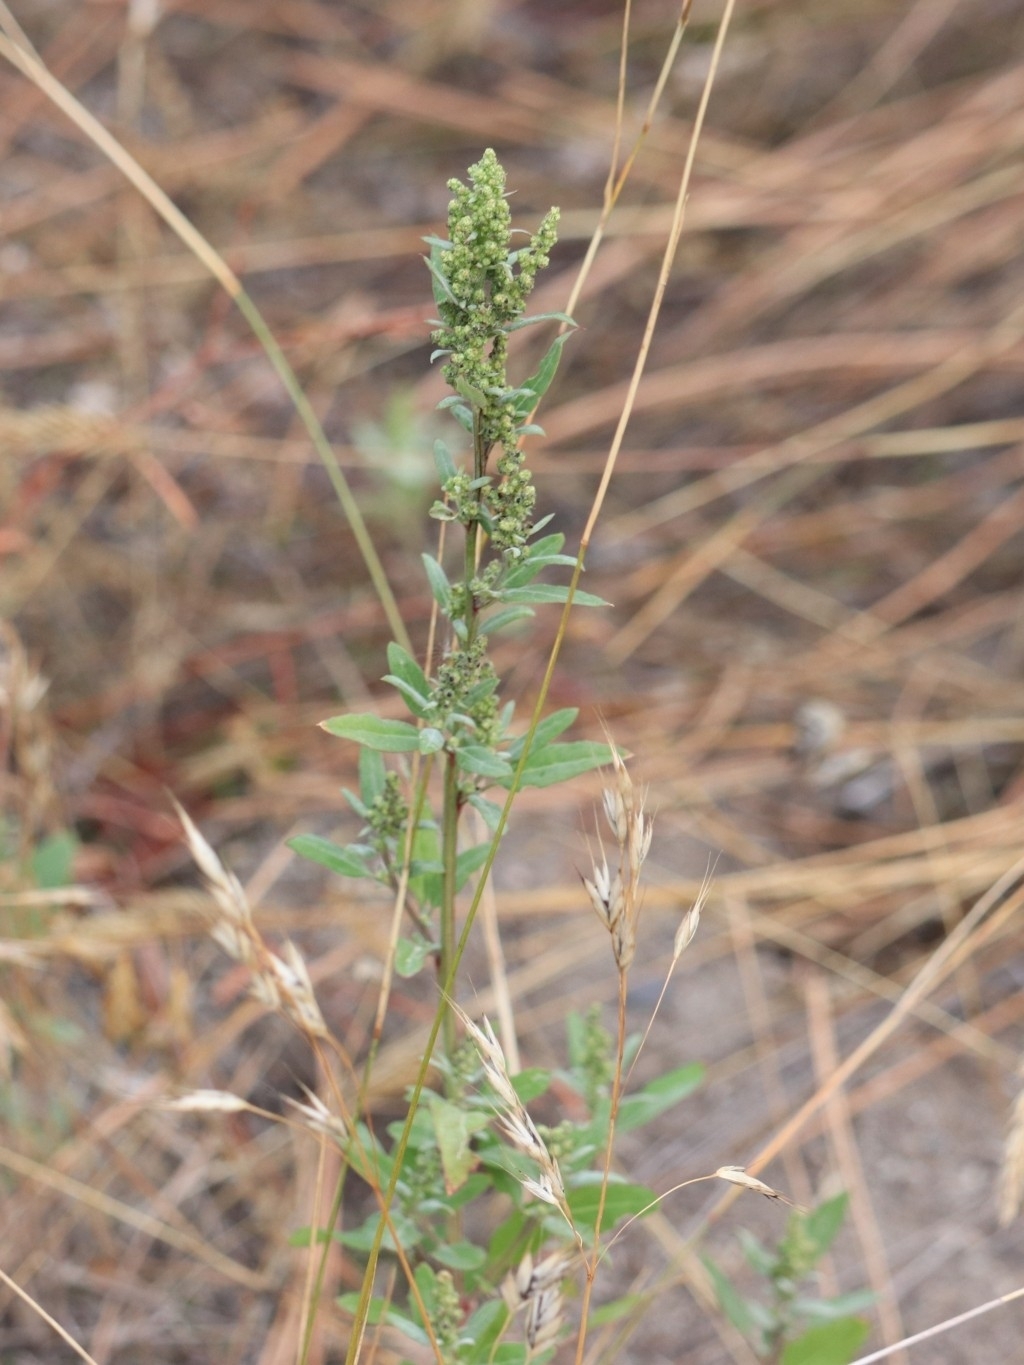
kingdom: Plantae
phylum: Tracheophyta
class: Magnoliopsida
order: Caryophyllales
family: Amaranthaceae
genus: Chenopodium
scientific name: Chenopodium album
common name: Fat-hen
